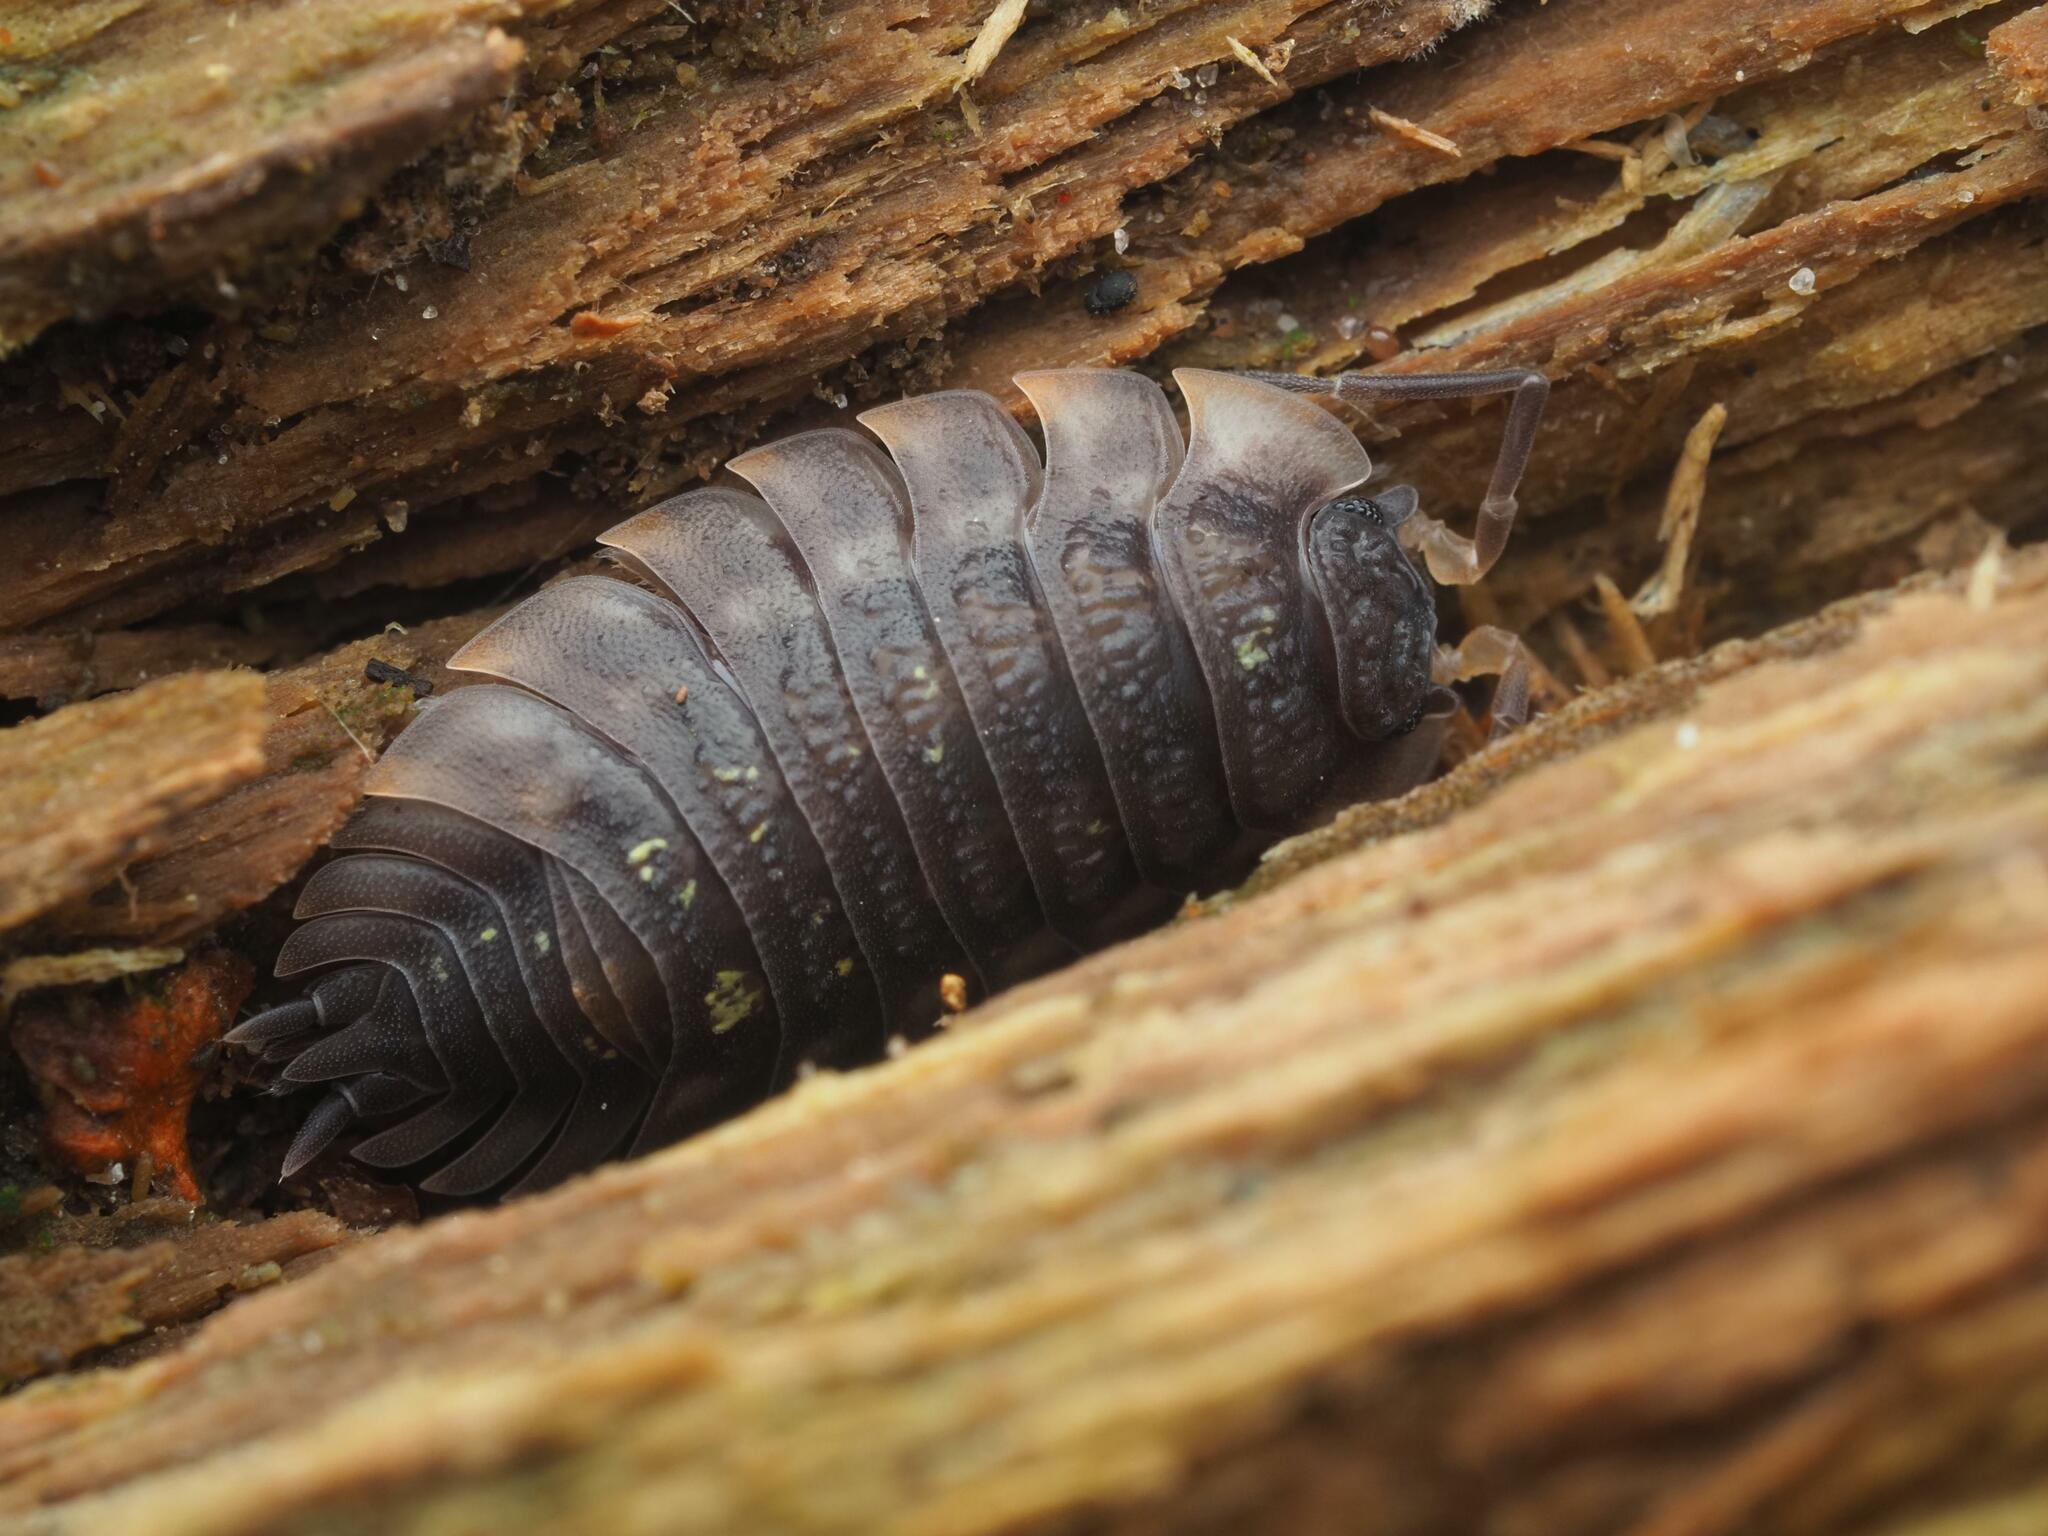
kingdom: Animalia
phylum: Arthropoda
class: Malacostraca
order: Isopoda
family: Oniscidae
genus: Oniscus
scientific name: Oniscus asellus
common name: Common shiny woodlouse
